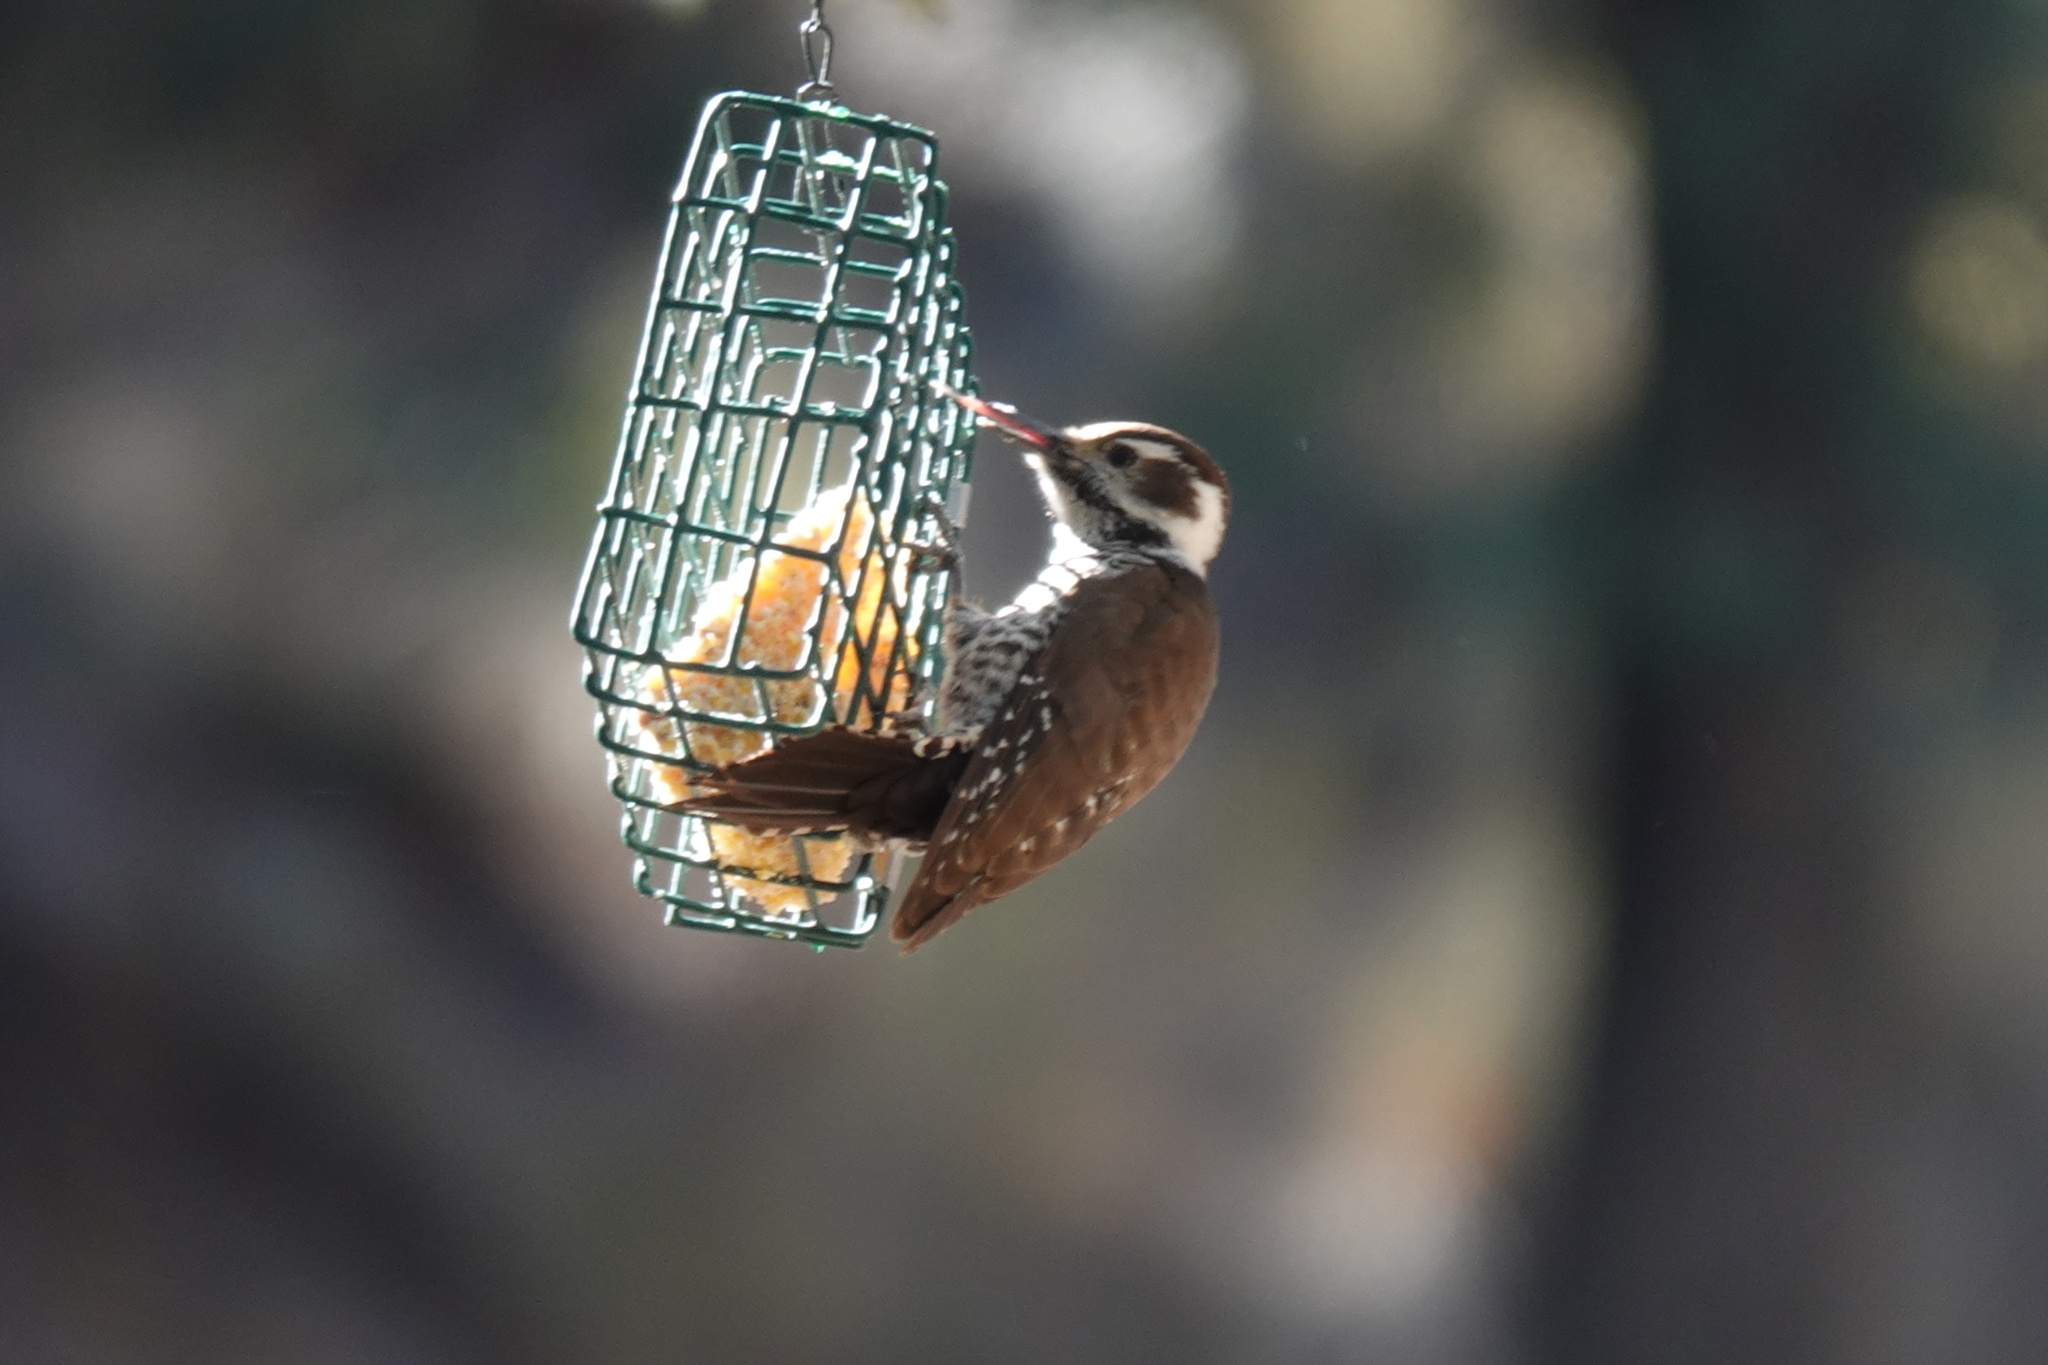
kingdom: Animalia
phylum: Chordata
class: Aves
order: Piciformes
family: Picidae
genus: Leuconotopicus
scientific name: Leuconotopicus arizonae
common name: Arizona woodpecker
